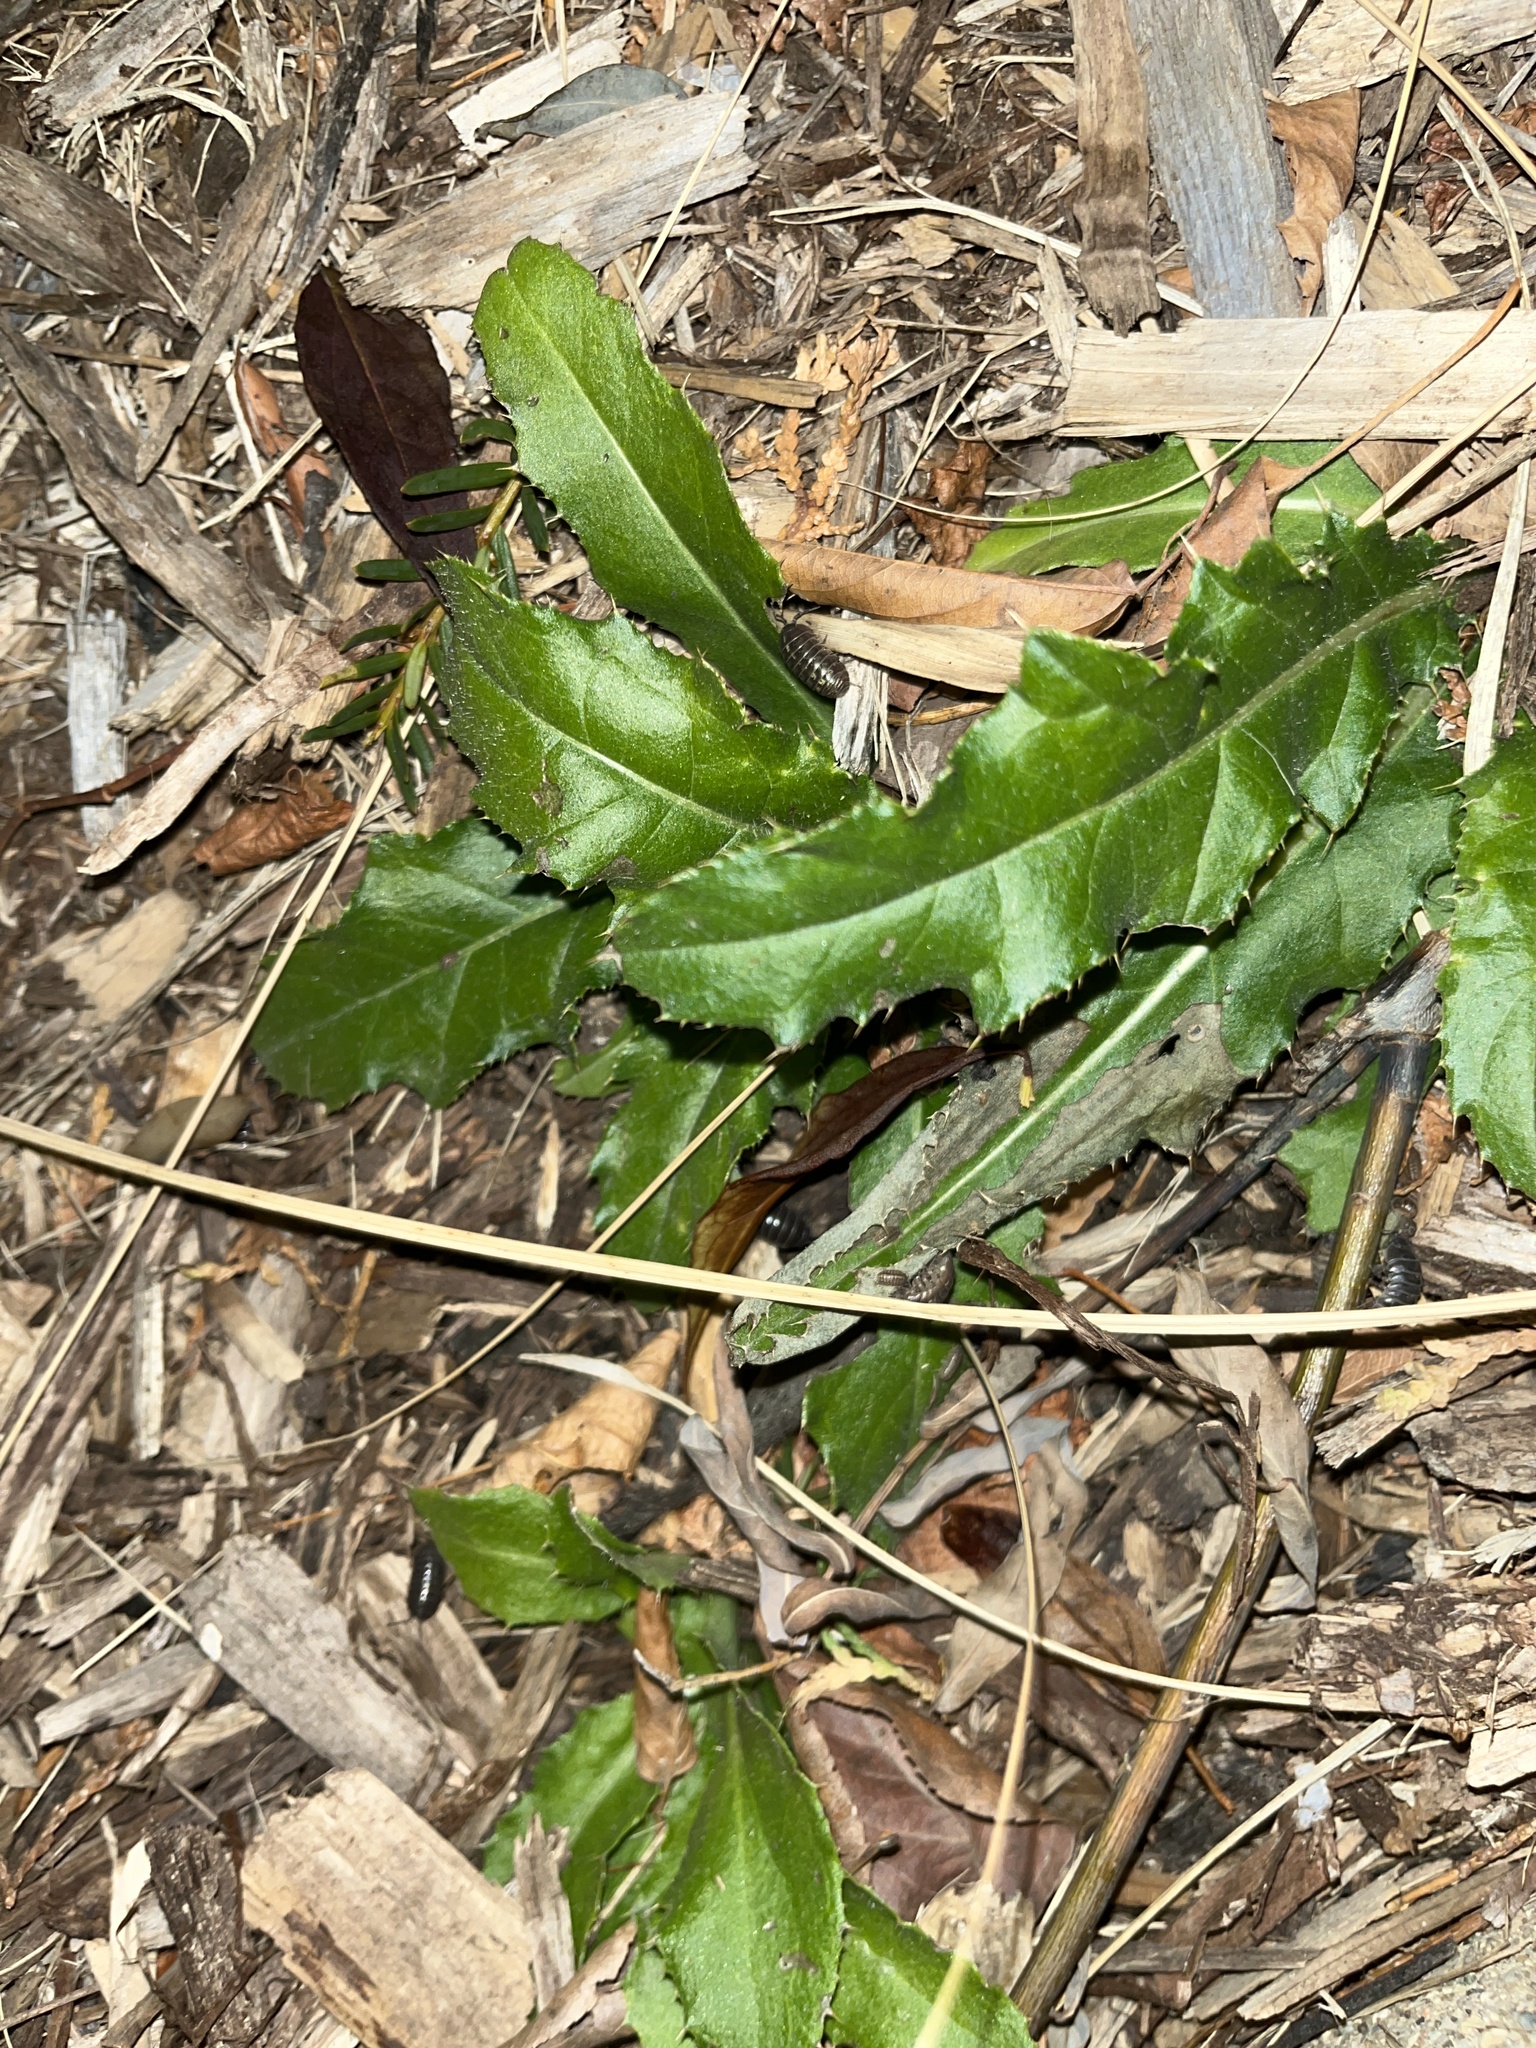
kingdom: Plantae
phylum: Tracheophyta
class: Magnoliopsida
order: Asterales
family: Asteraceae
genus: Cirsium
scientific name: Cirsium arvense
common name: Creeping thistle
